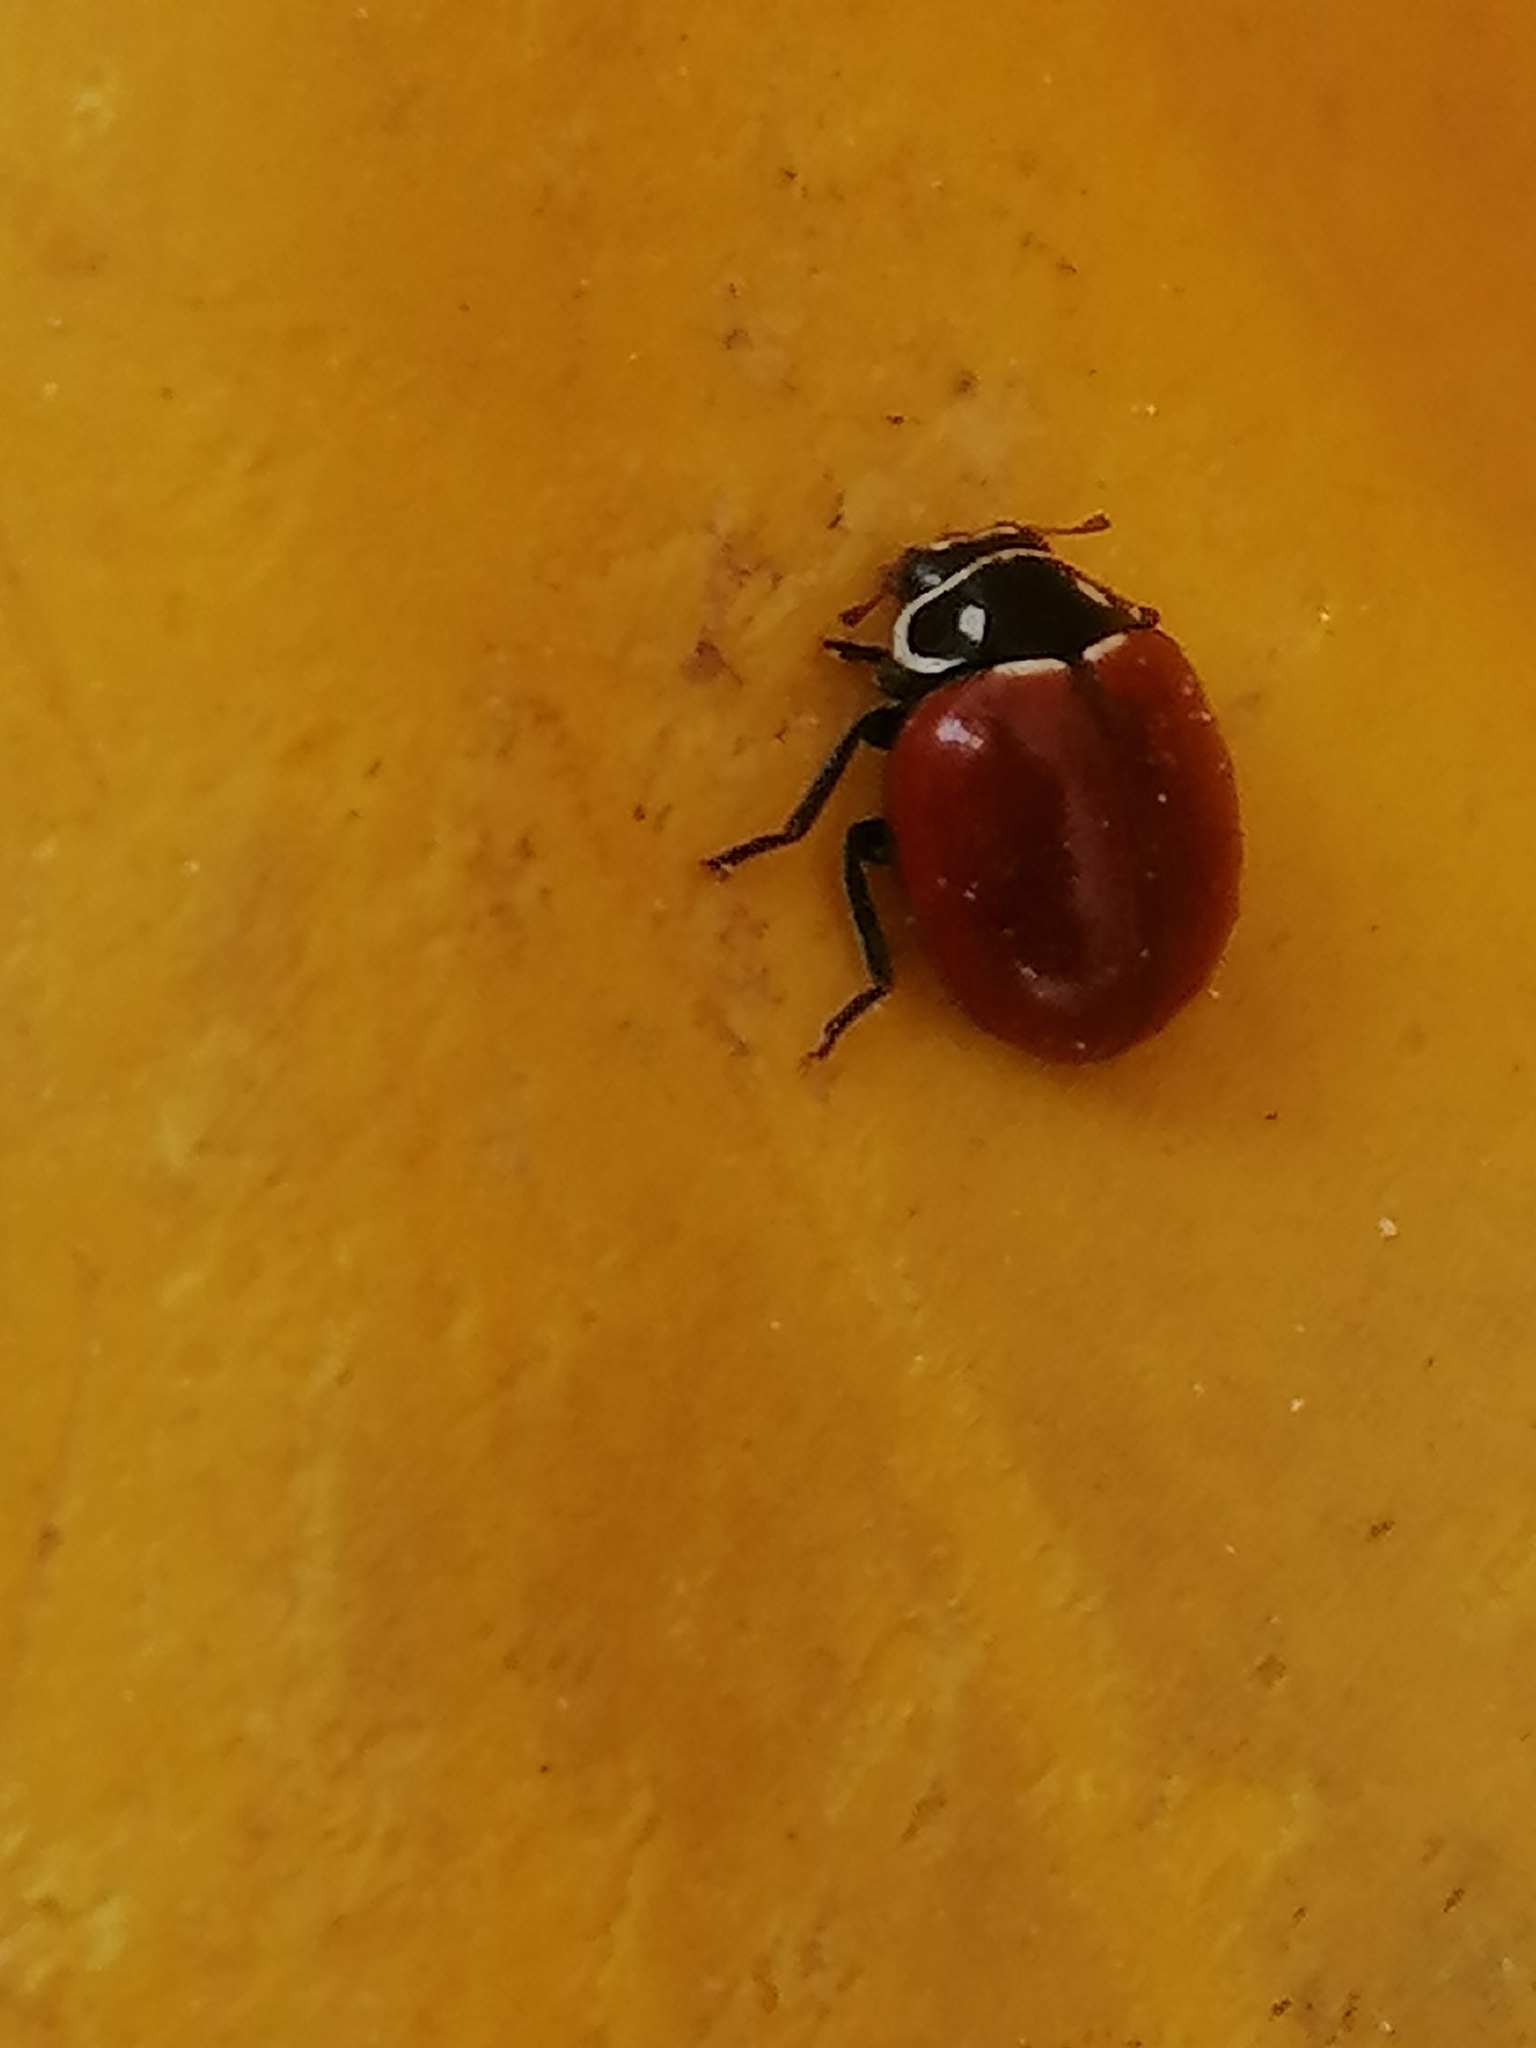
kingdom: Animalia
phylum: Arthropoda
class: Insecta
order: Coleoptera
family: Coccinellidae
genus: Cycloneda
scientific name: Cycloneda emarginata
